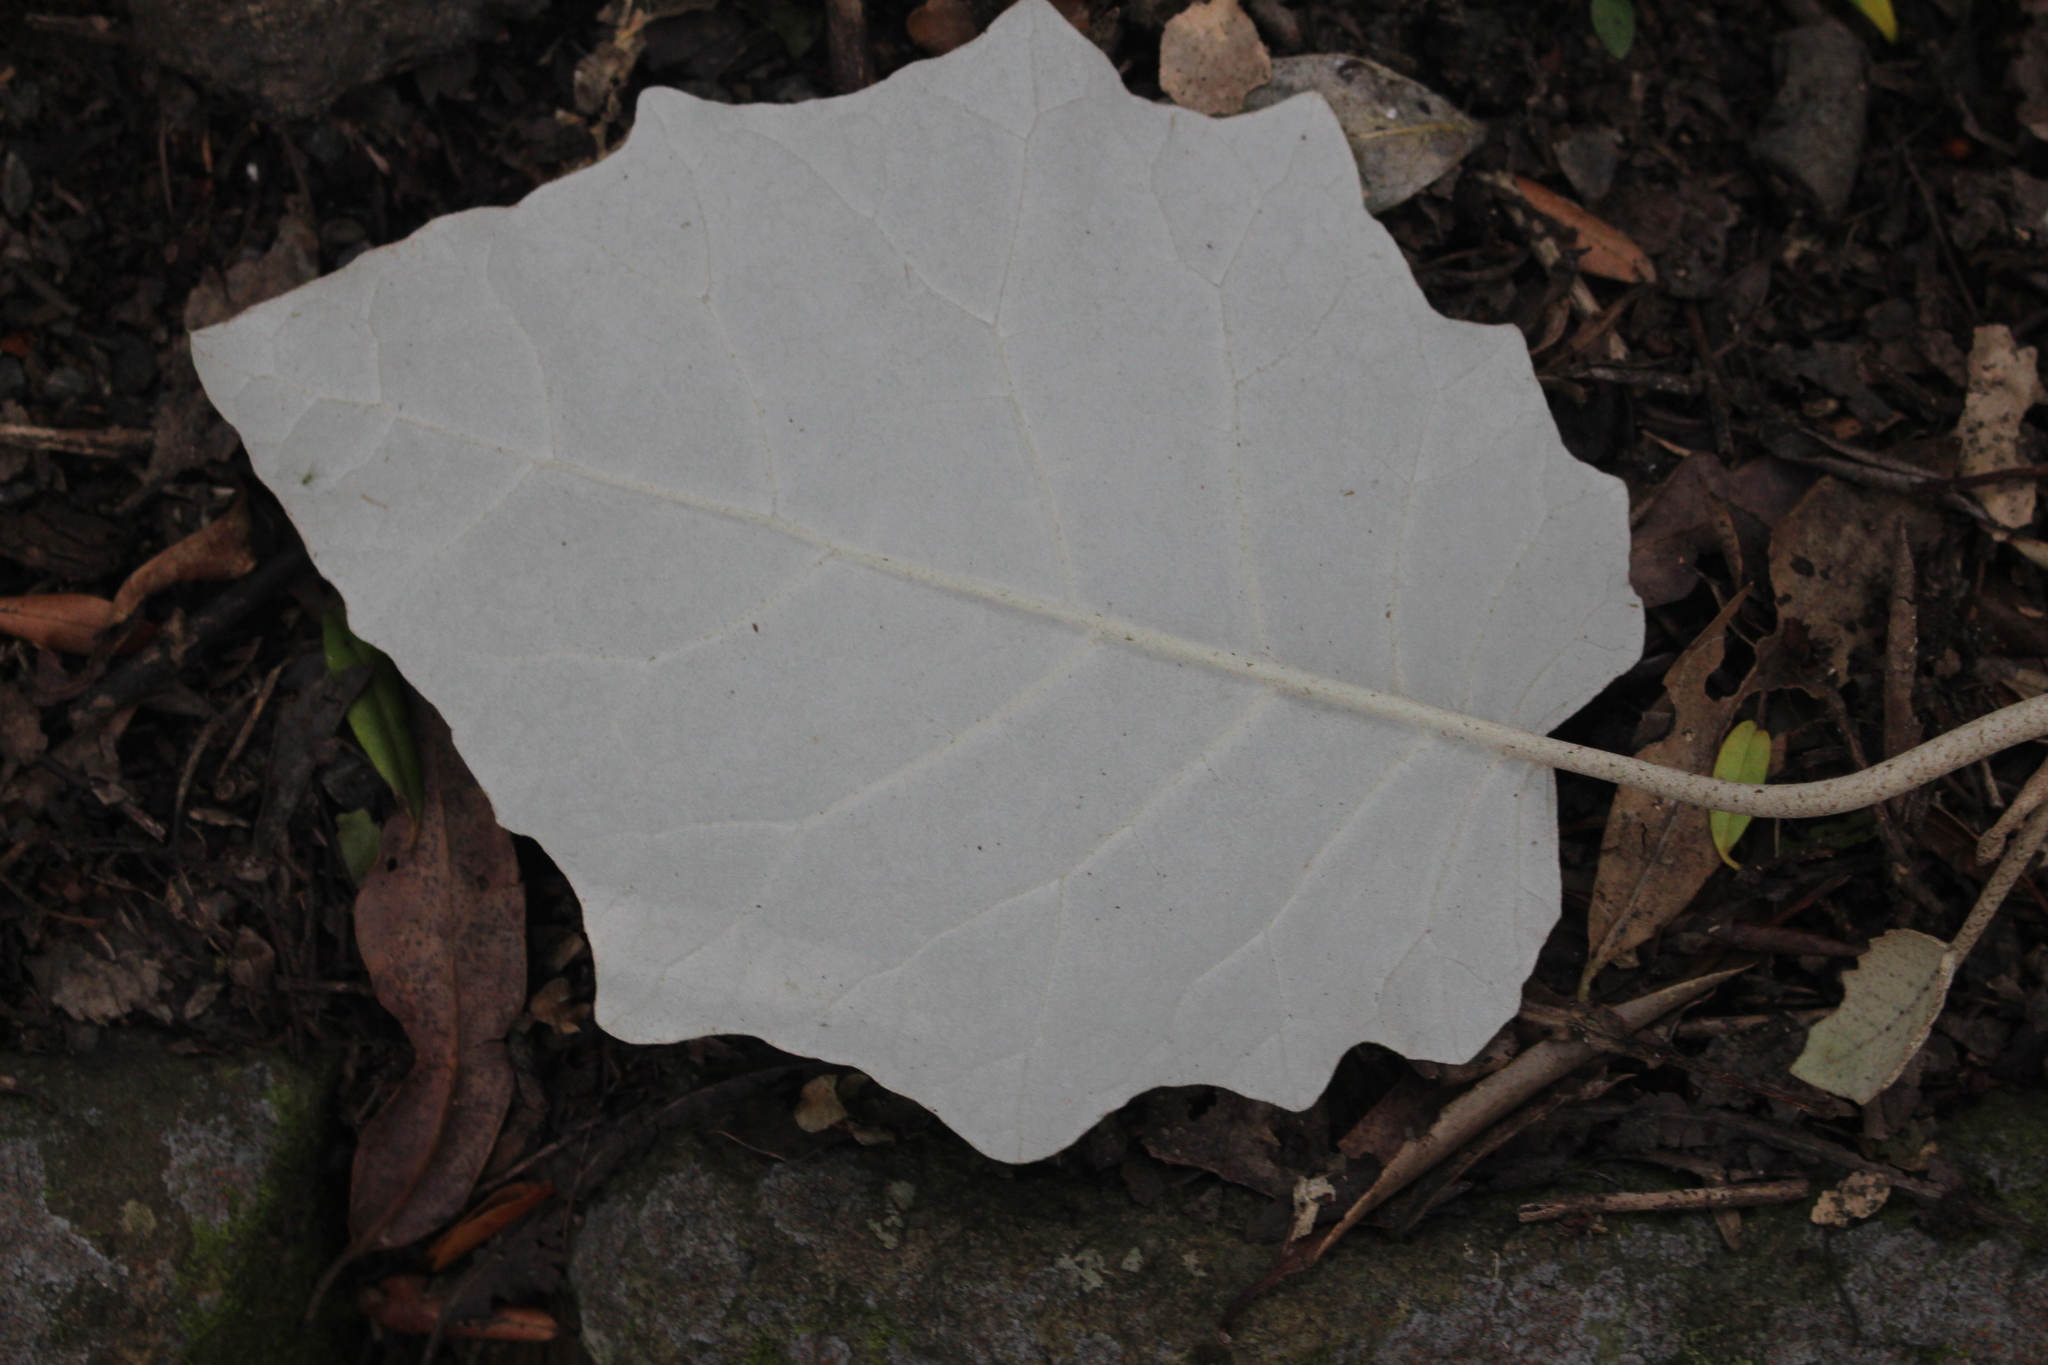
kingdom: Plantae
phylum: Tracheophyta
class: Magnoliopsida
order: Asterales
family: Asteraceae
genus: Brachyglottis
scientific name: Brachyglottis repanda
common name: Hedge ragwort
